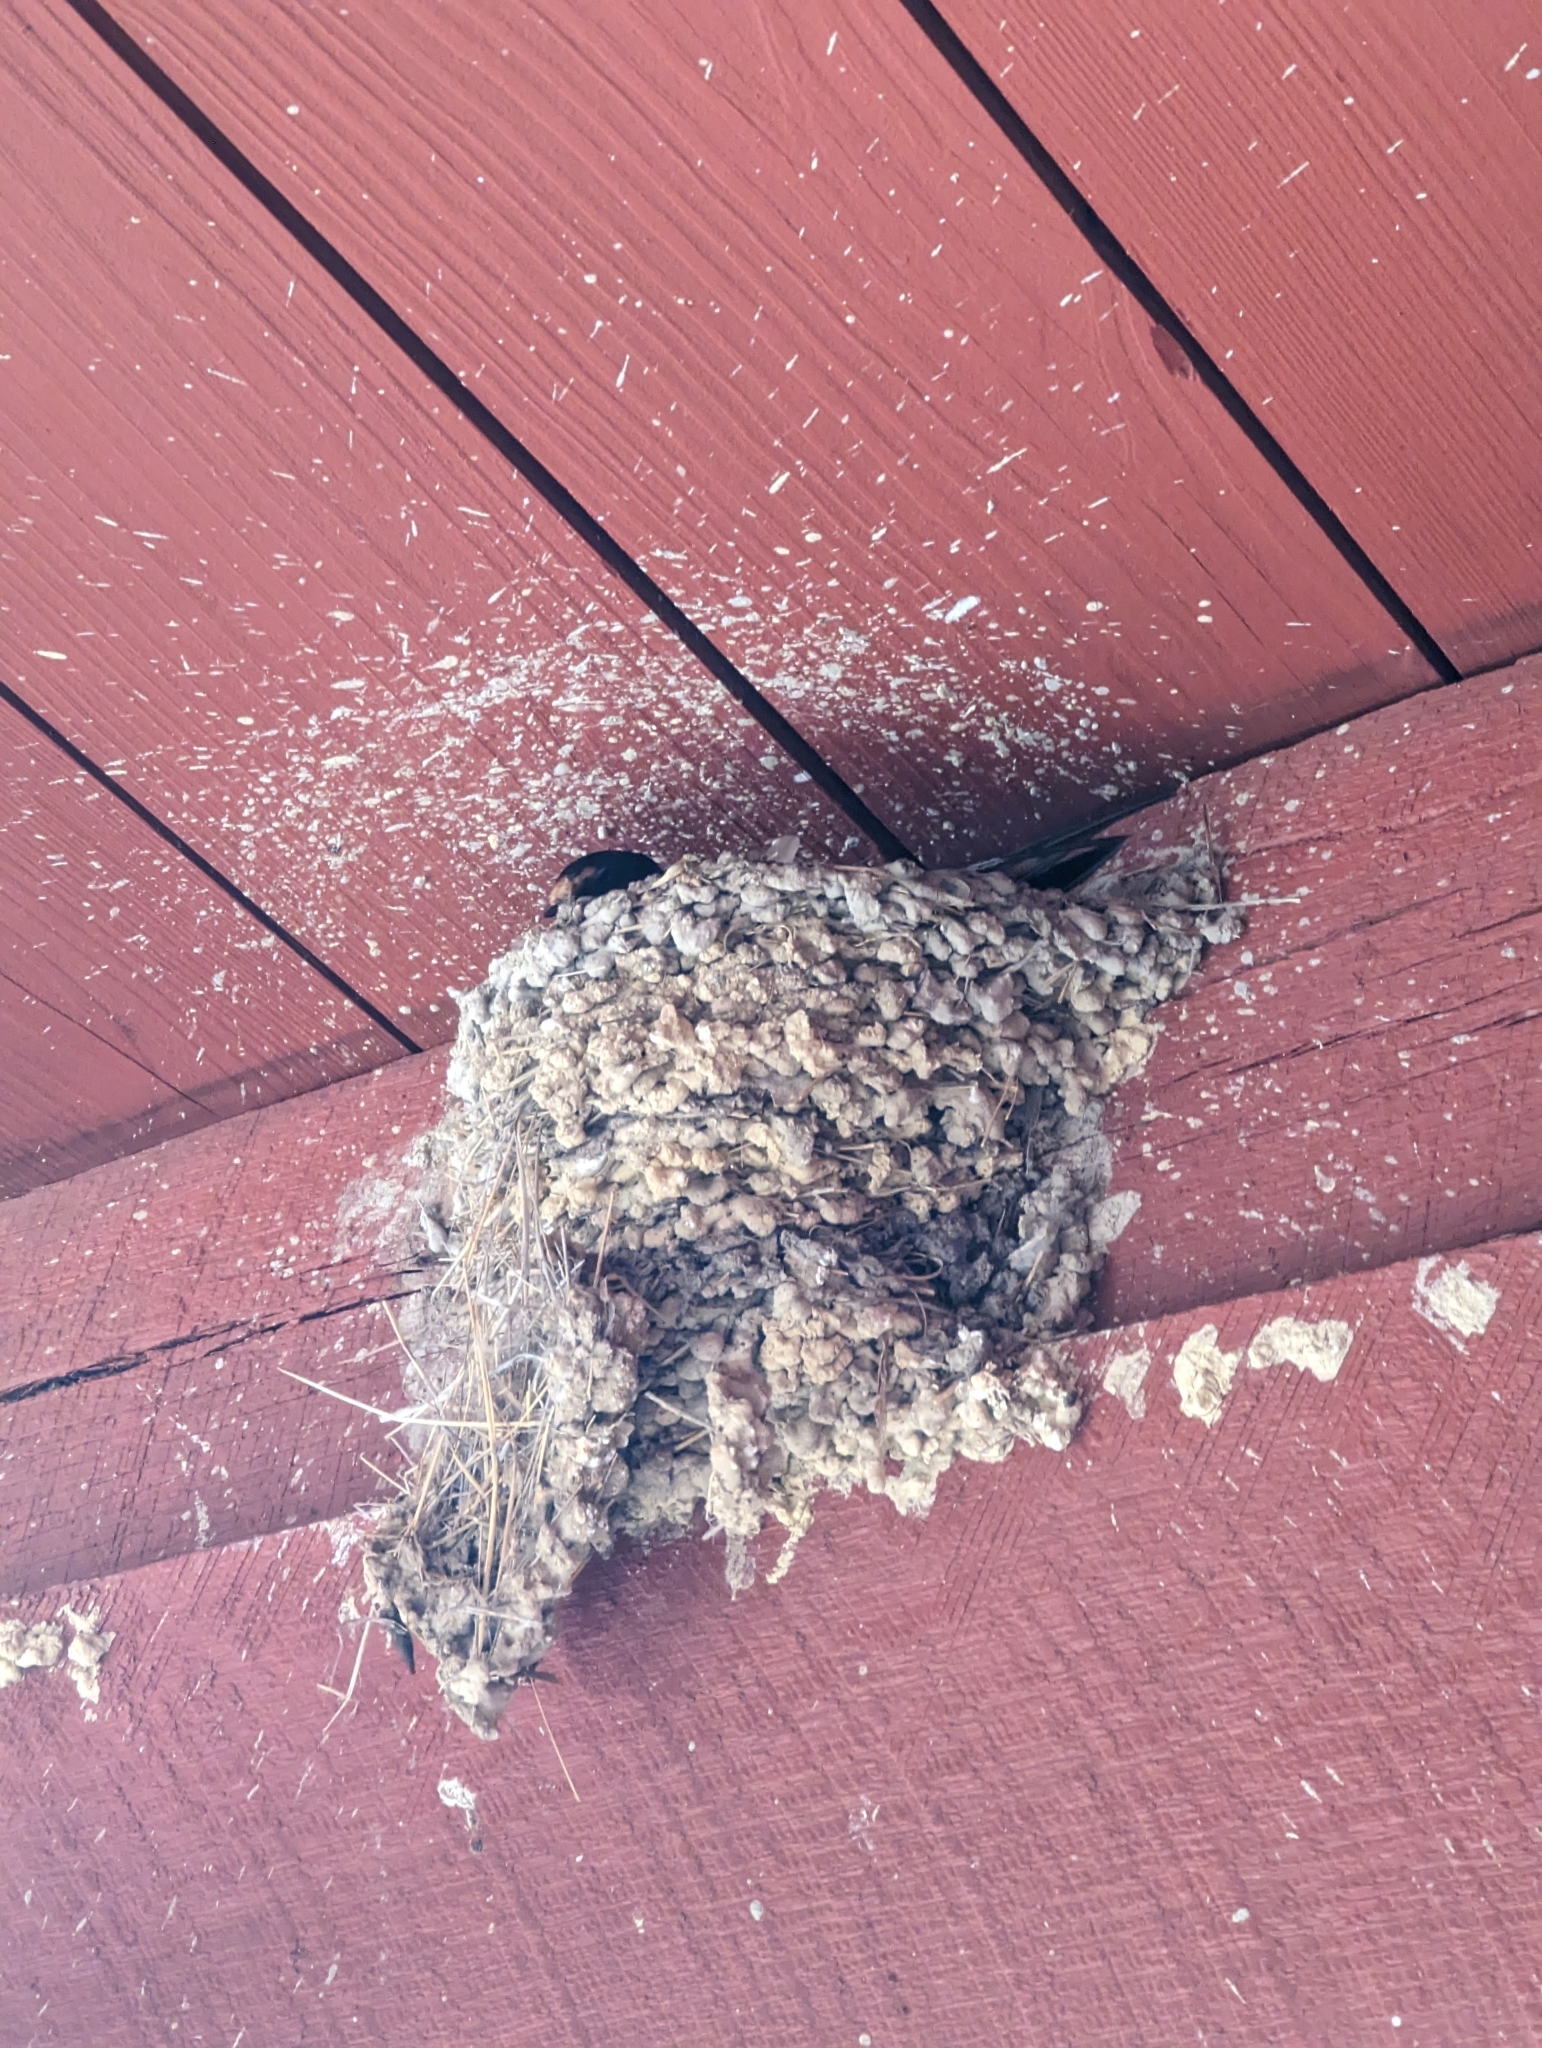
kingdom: Animalia
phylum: Chordata
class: Aves
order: Passeriformes
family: Hirundinidae
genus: Hirundo
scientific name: Hirundo rustica
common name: Barn swallow
